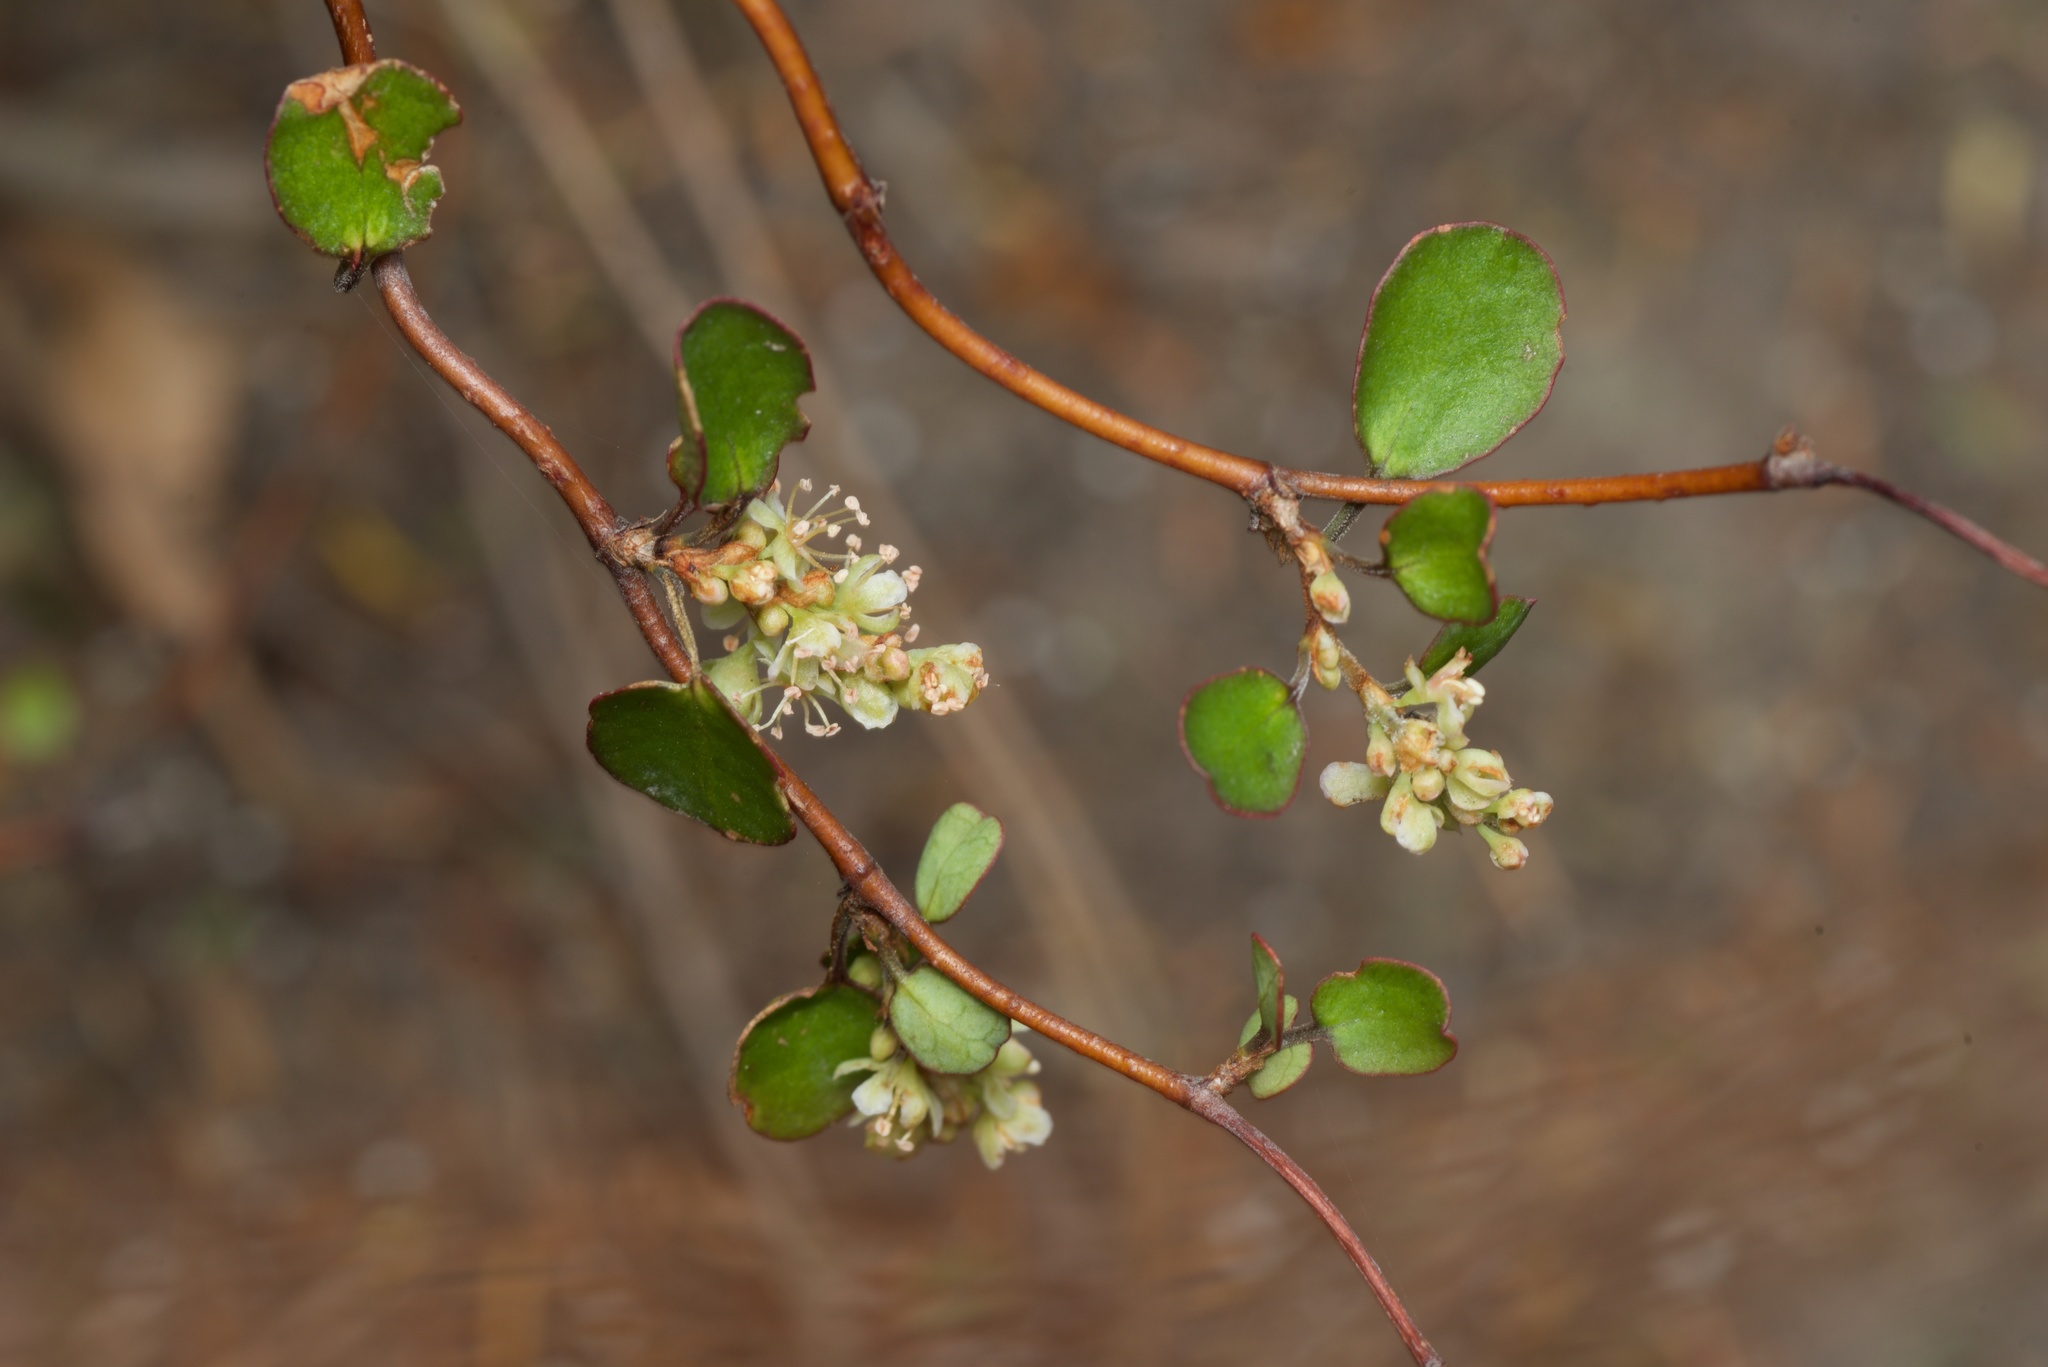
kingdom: Plantae
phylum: Tracheophyta
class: Magnoliopsida
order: Caryophyllales
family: Polygonaceae
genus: Muehlenbeckia
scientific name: Muehlenbeckia complexa
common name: Wireplant
